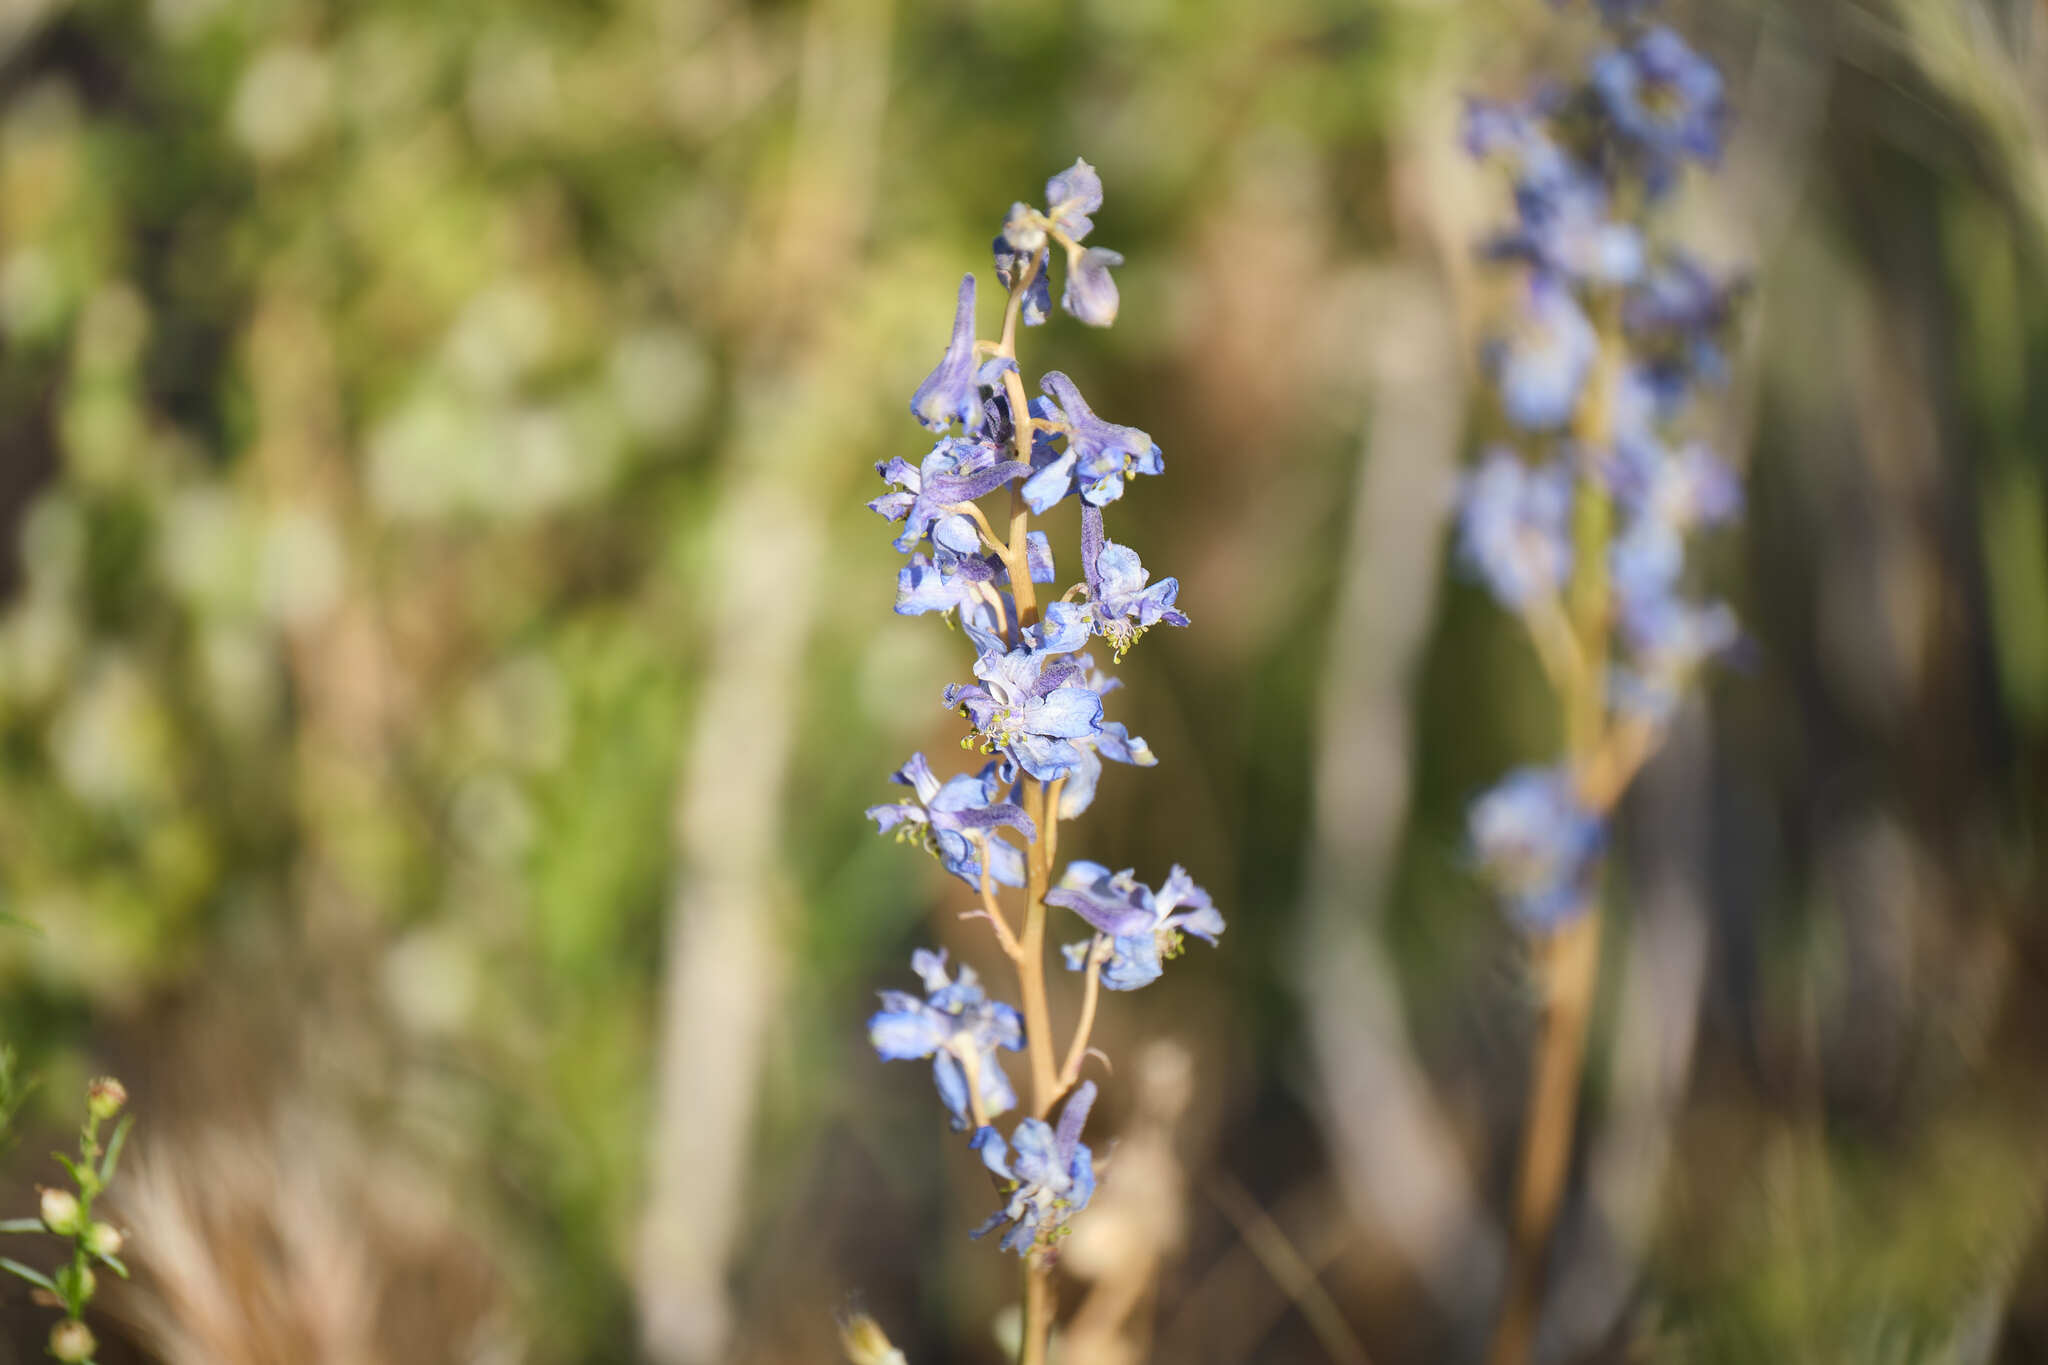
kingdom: Plantae
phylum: Tracheophyta
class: Magnoliopsida
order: Ranunculales
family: Ranunculaceae
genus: Delphinium
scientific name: Delphinium parishii
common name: Apache larkspur
